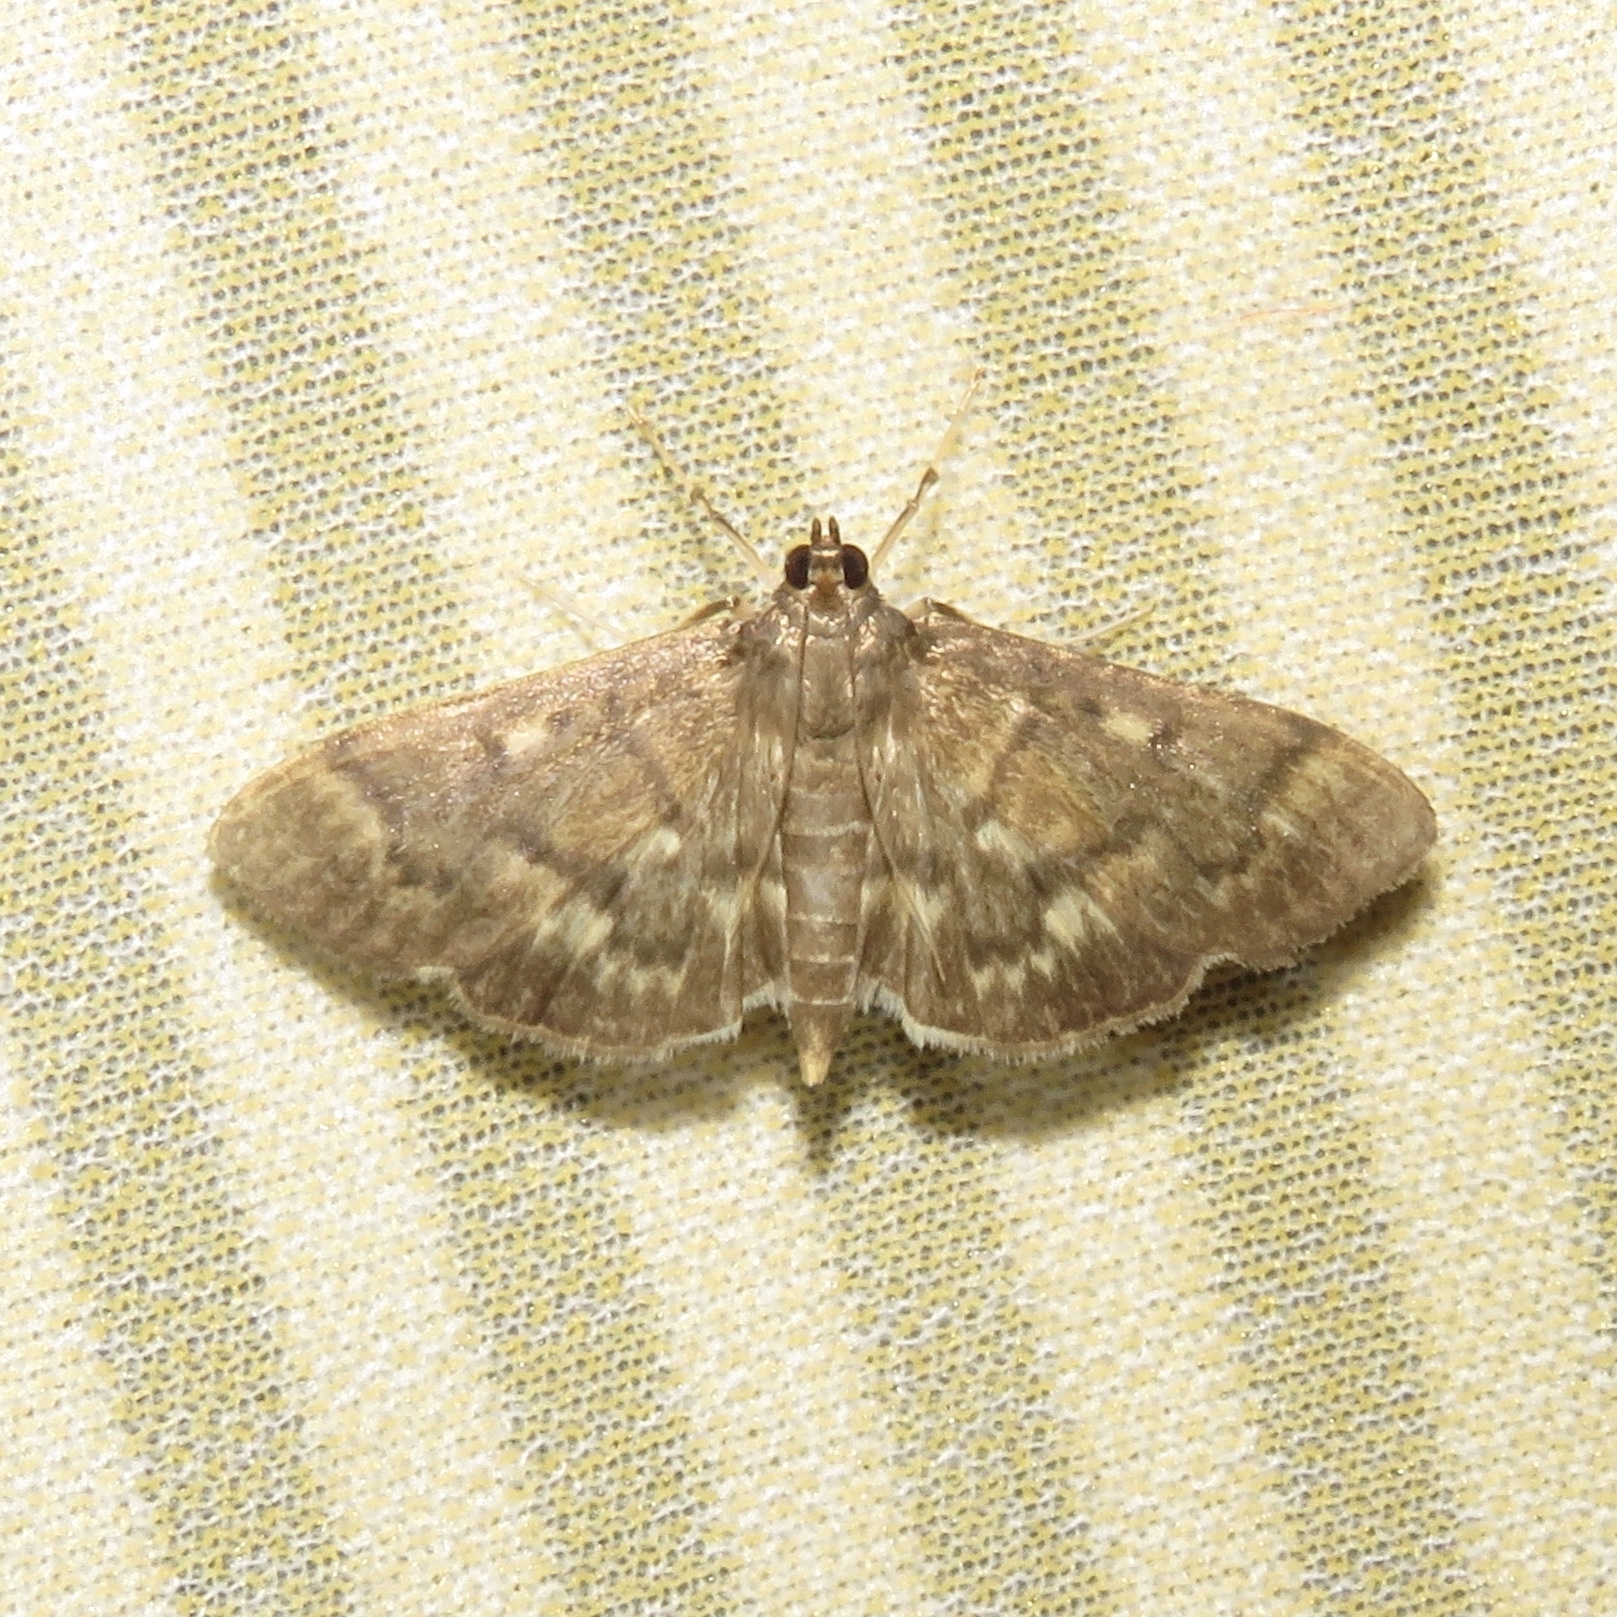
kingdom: Animalia
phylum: Arthropoda
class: Insecta
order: Lepidoptera
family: Crambidae
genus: Herpetogramma
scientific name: Herpetogramma aeglealis
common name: Serpentine webworm moth
